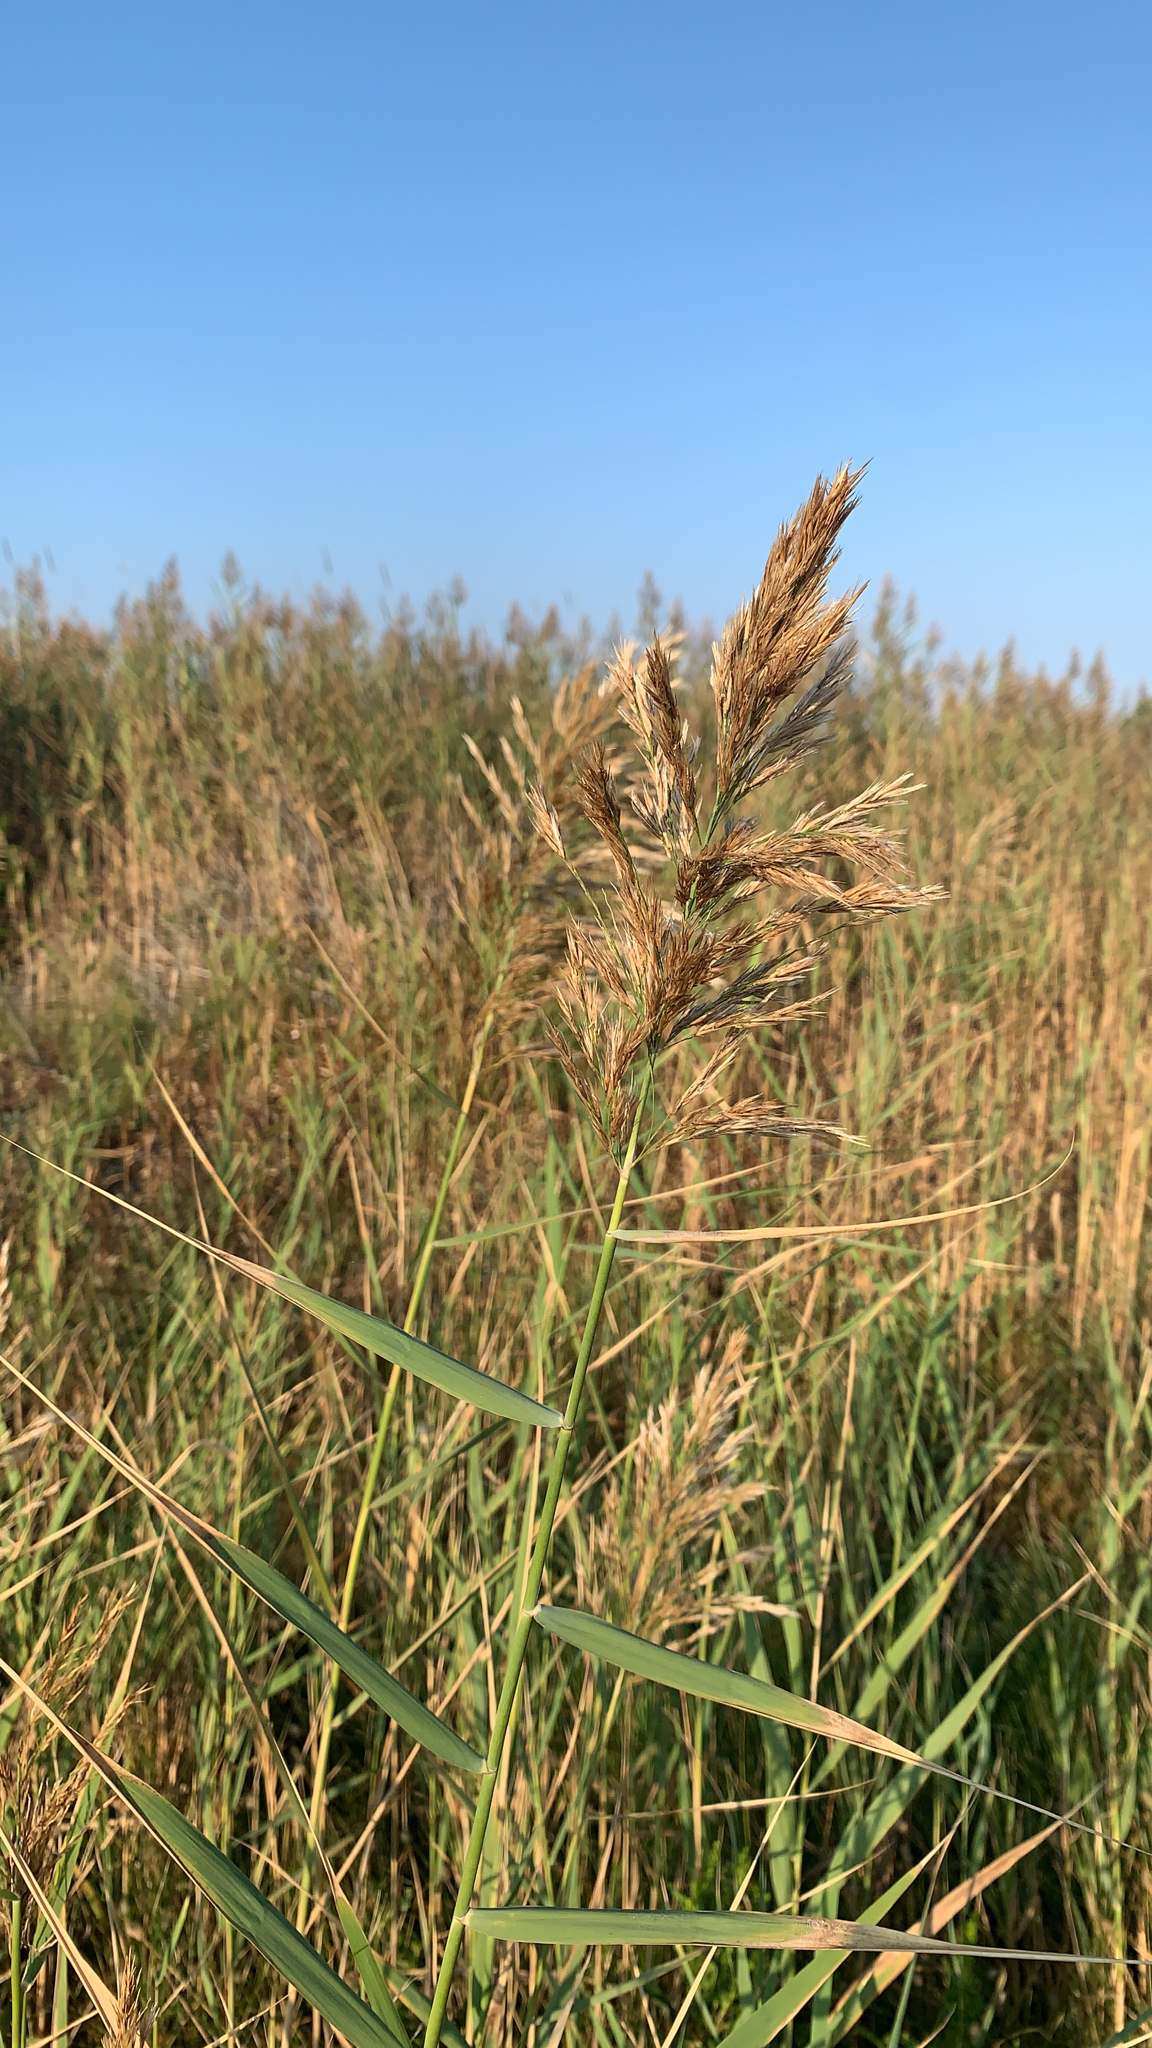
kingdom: Plantae
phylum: Tracheophyta
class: Liliopsida
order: Poales
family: Poaceae
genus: Phragmites
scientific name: Phragmites australis
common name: Common reed
